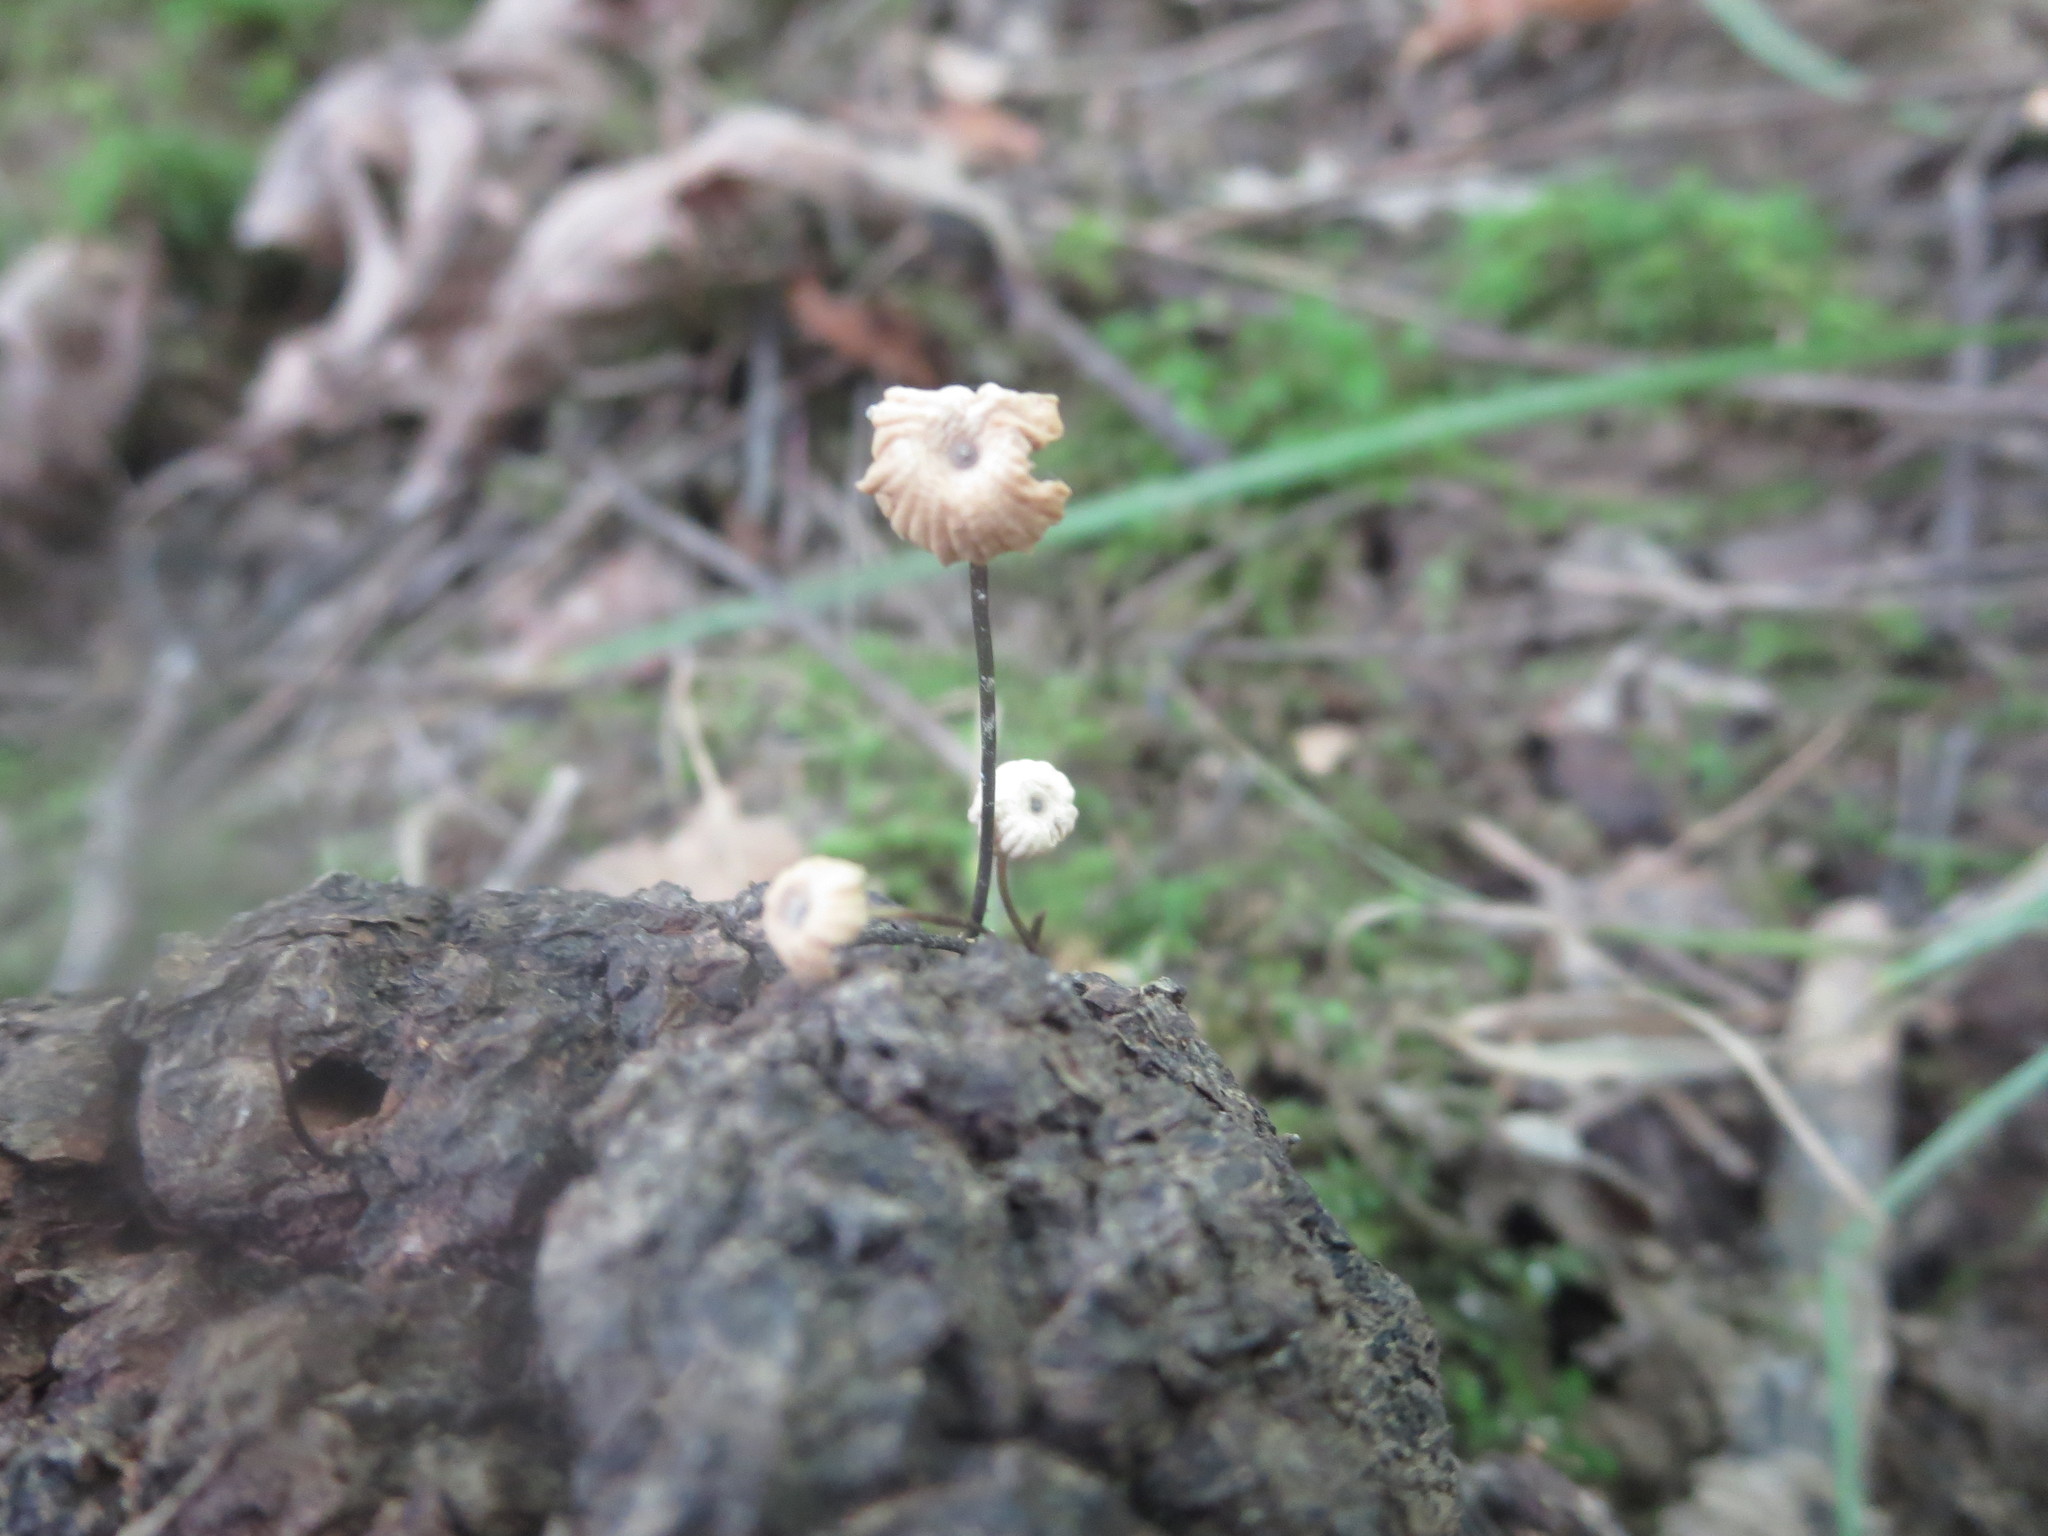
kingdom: Fungi
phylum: Basidiomycota
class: Agaricomycetes
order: Agaricales
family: Marasmiaceae
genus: Marasmius
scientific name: Marasmius rotula
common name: Collared parachute
